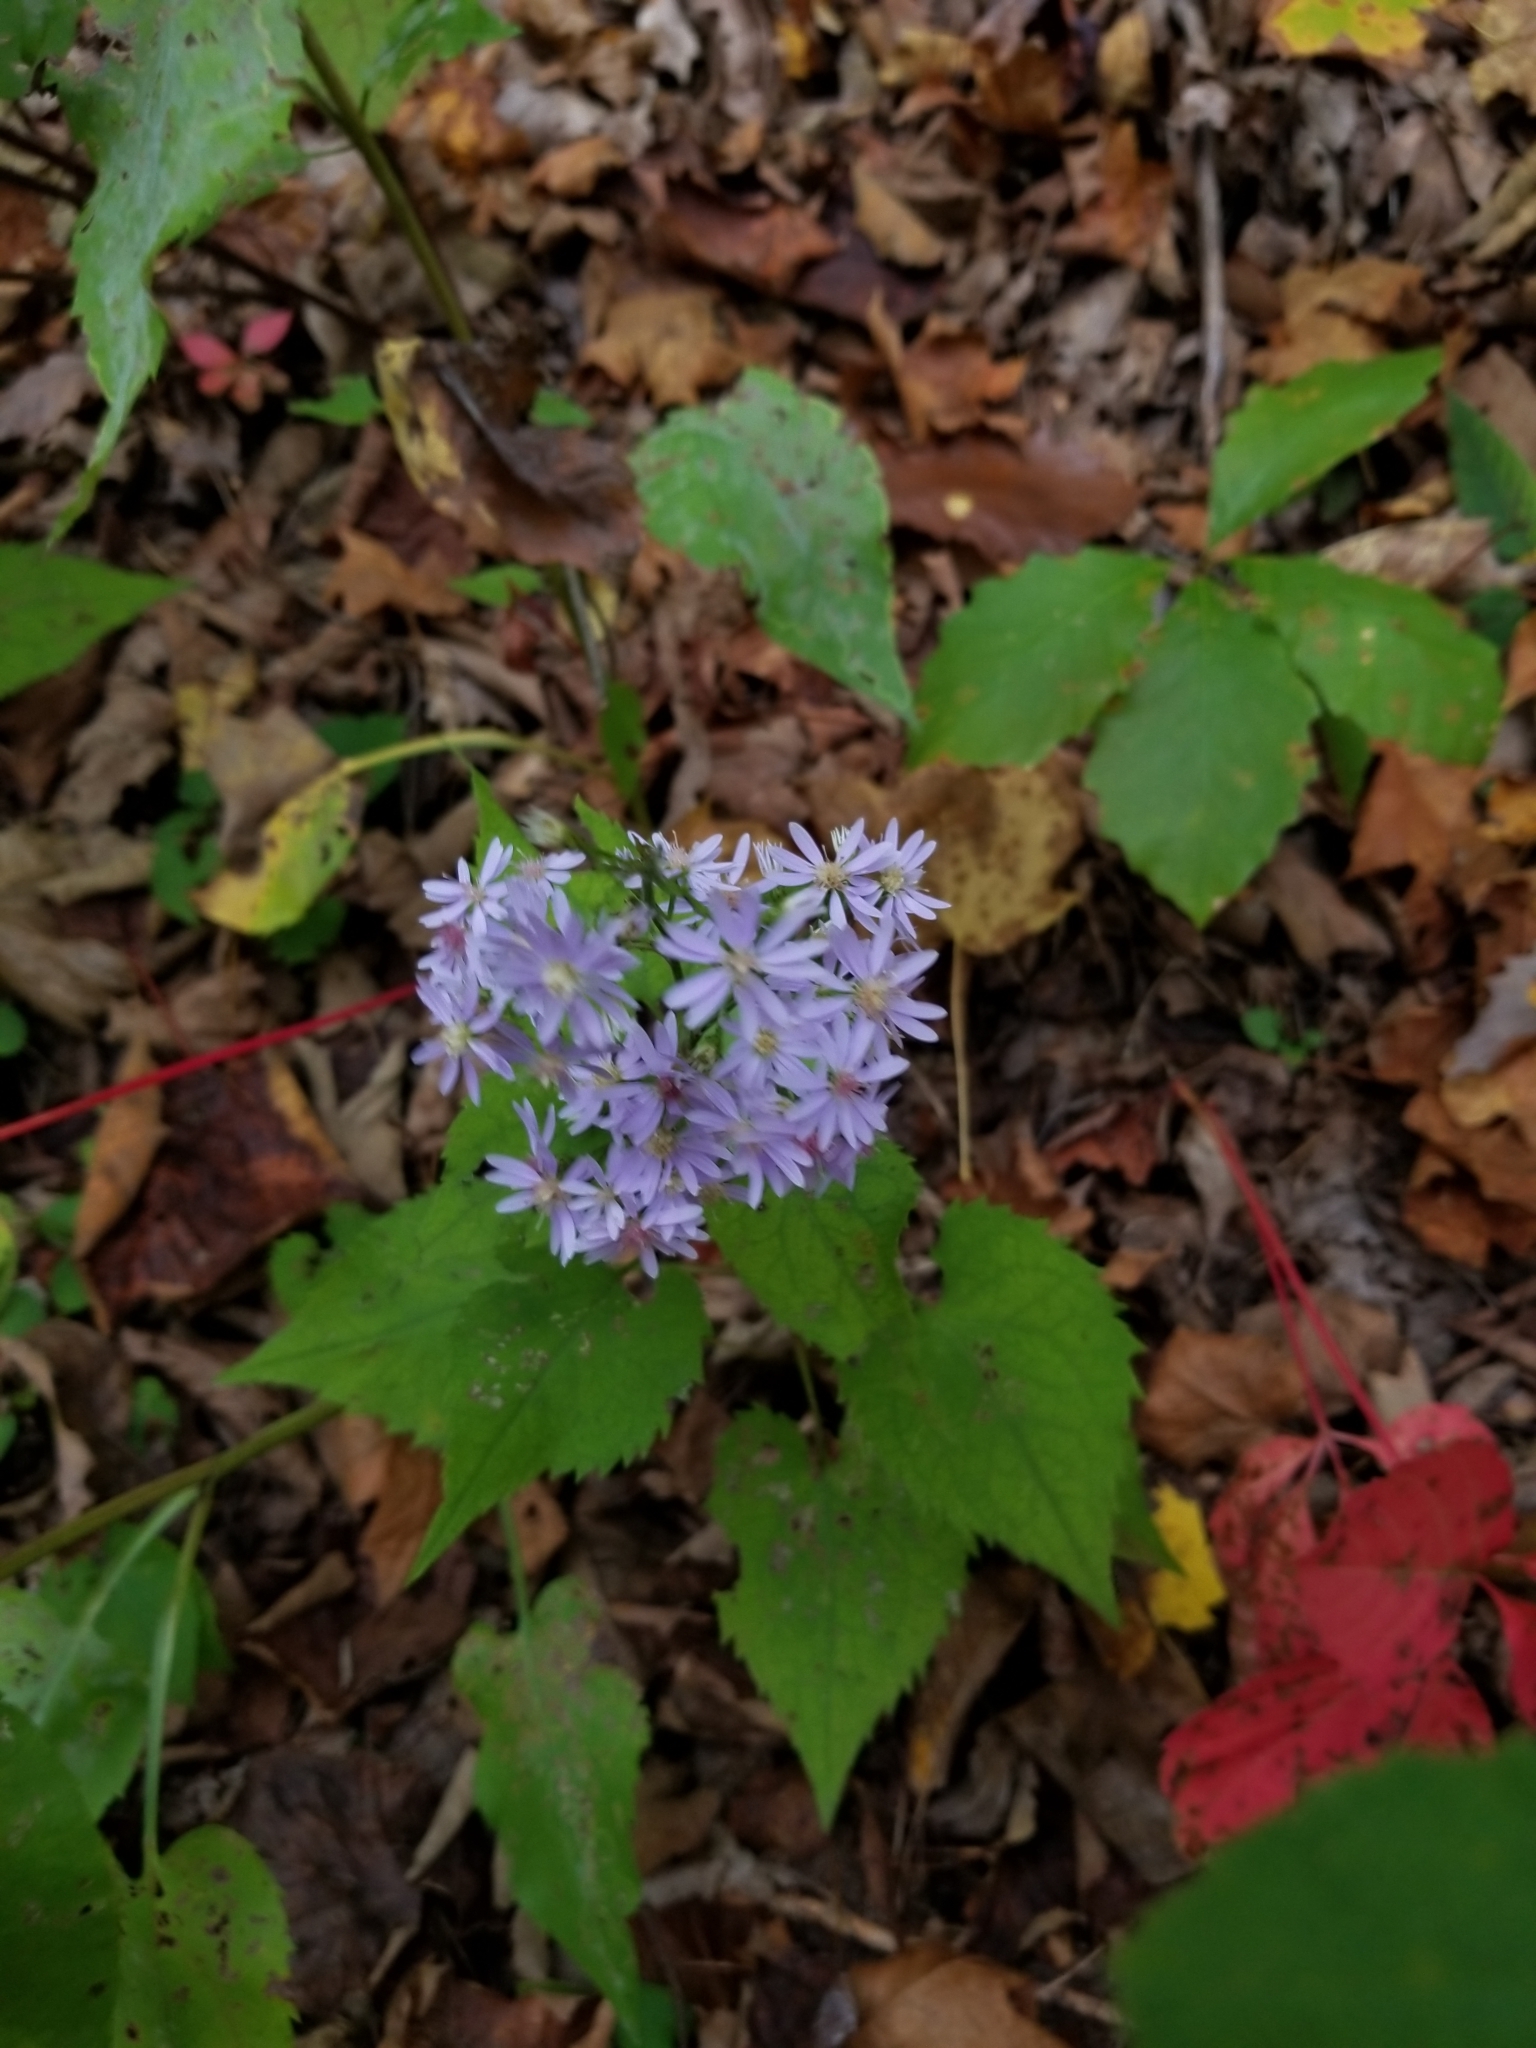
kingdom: Plantae
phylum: Tracheophyta
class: Magnoliopsida
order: Asterales
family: Asteraceae
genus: Symphyotrichum
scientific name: Symphyotrichum cordifolium
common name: Beeweed
